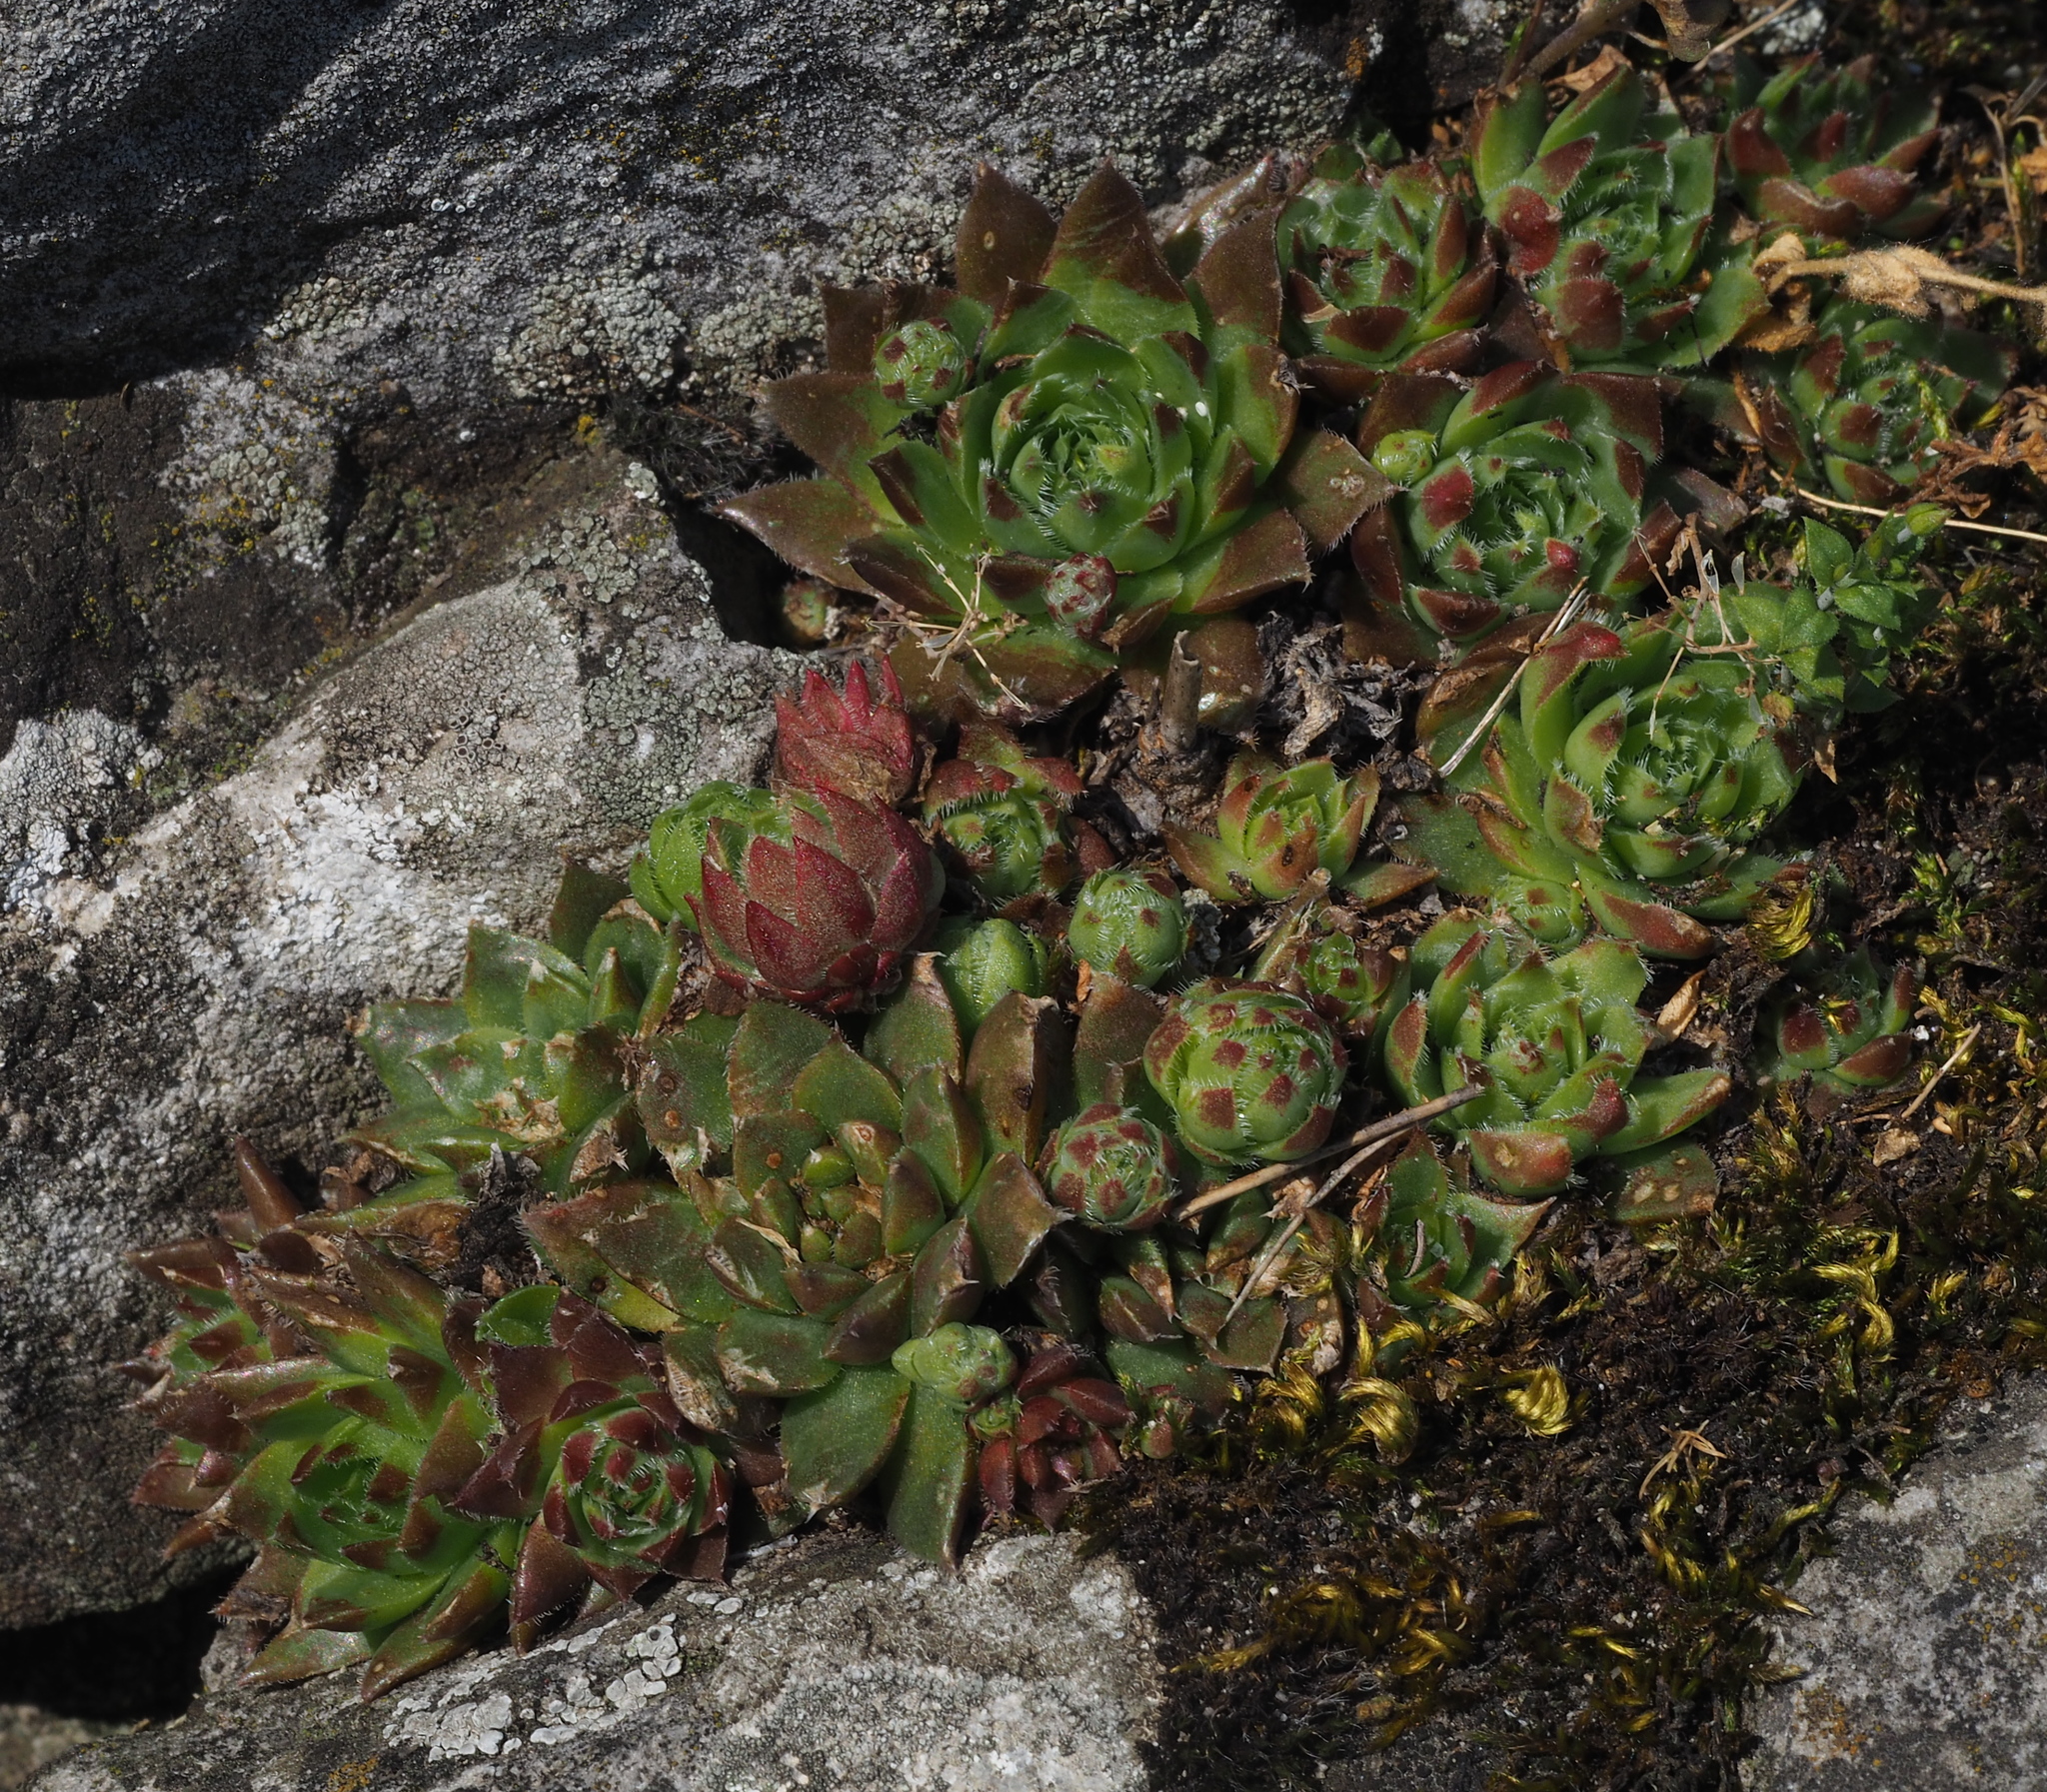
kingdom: Plantae
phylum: Tracheophyta
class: Magnoliopsida
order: Saxifragales
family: Crassulaceae
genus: Sempervivum
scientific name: Sempervivum globiferum
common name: Rolling hen-and-chicks
